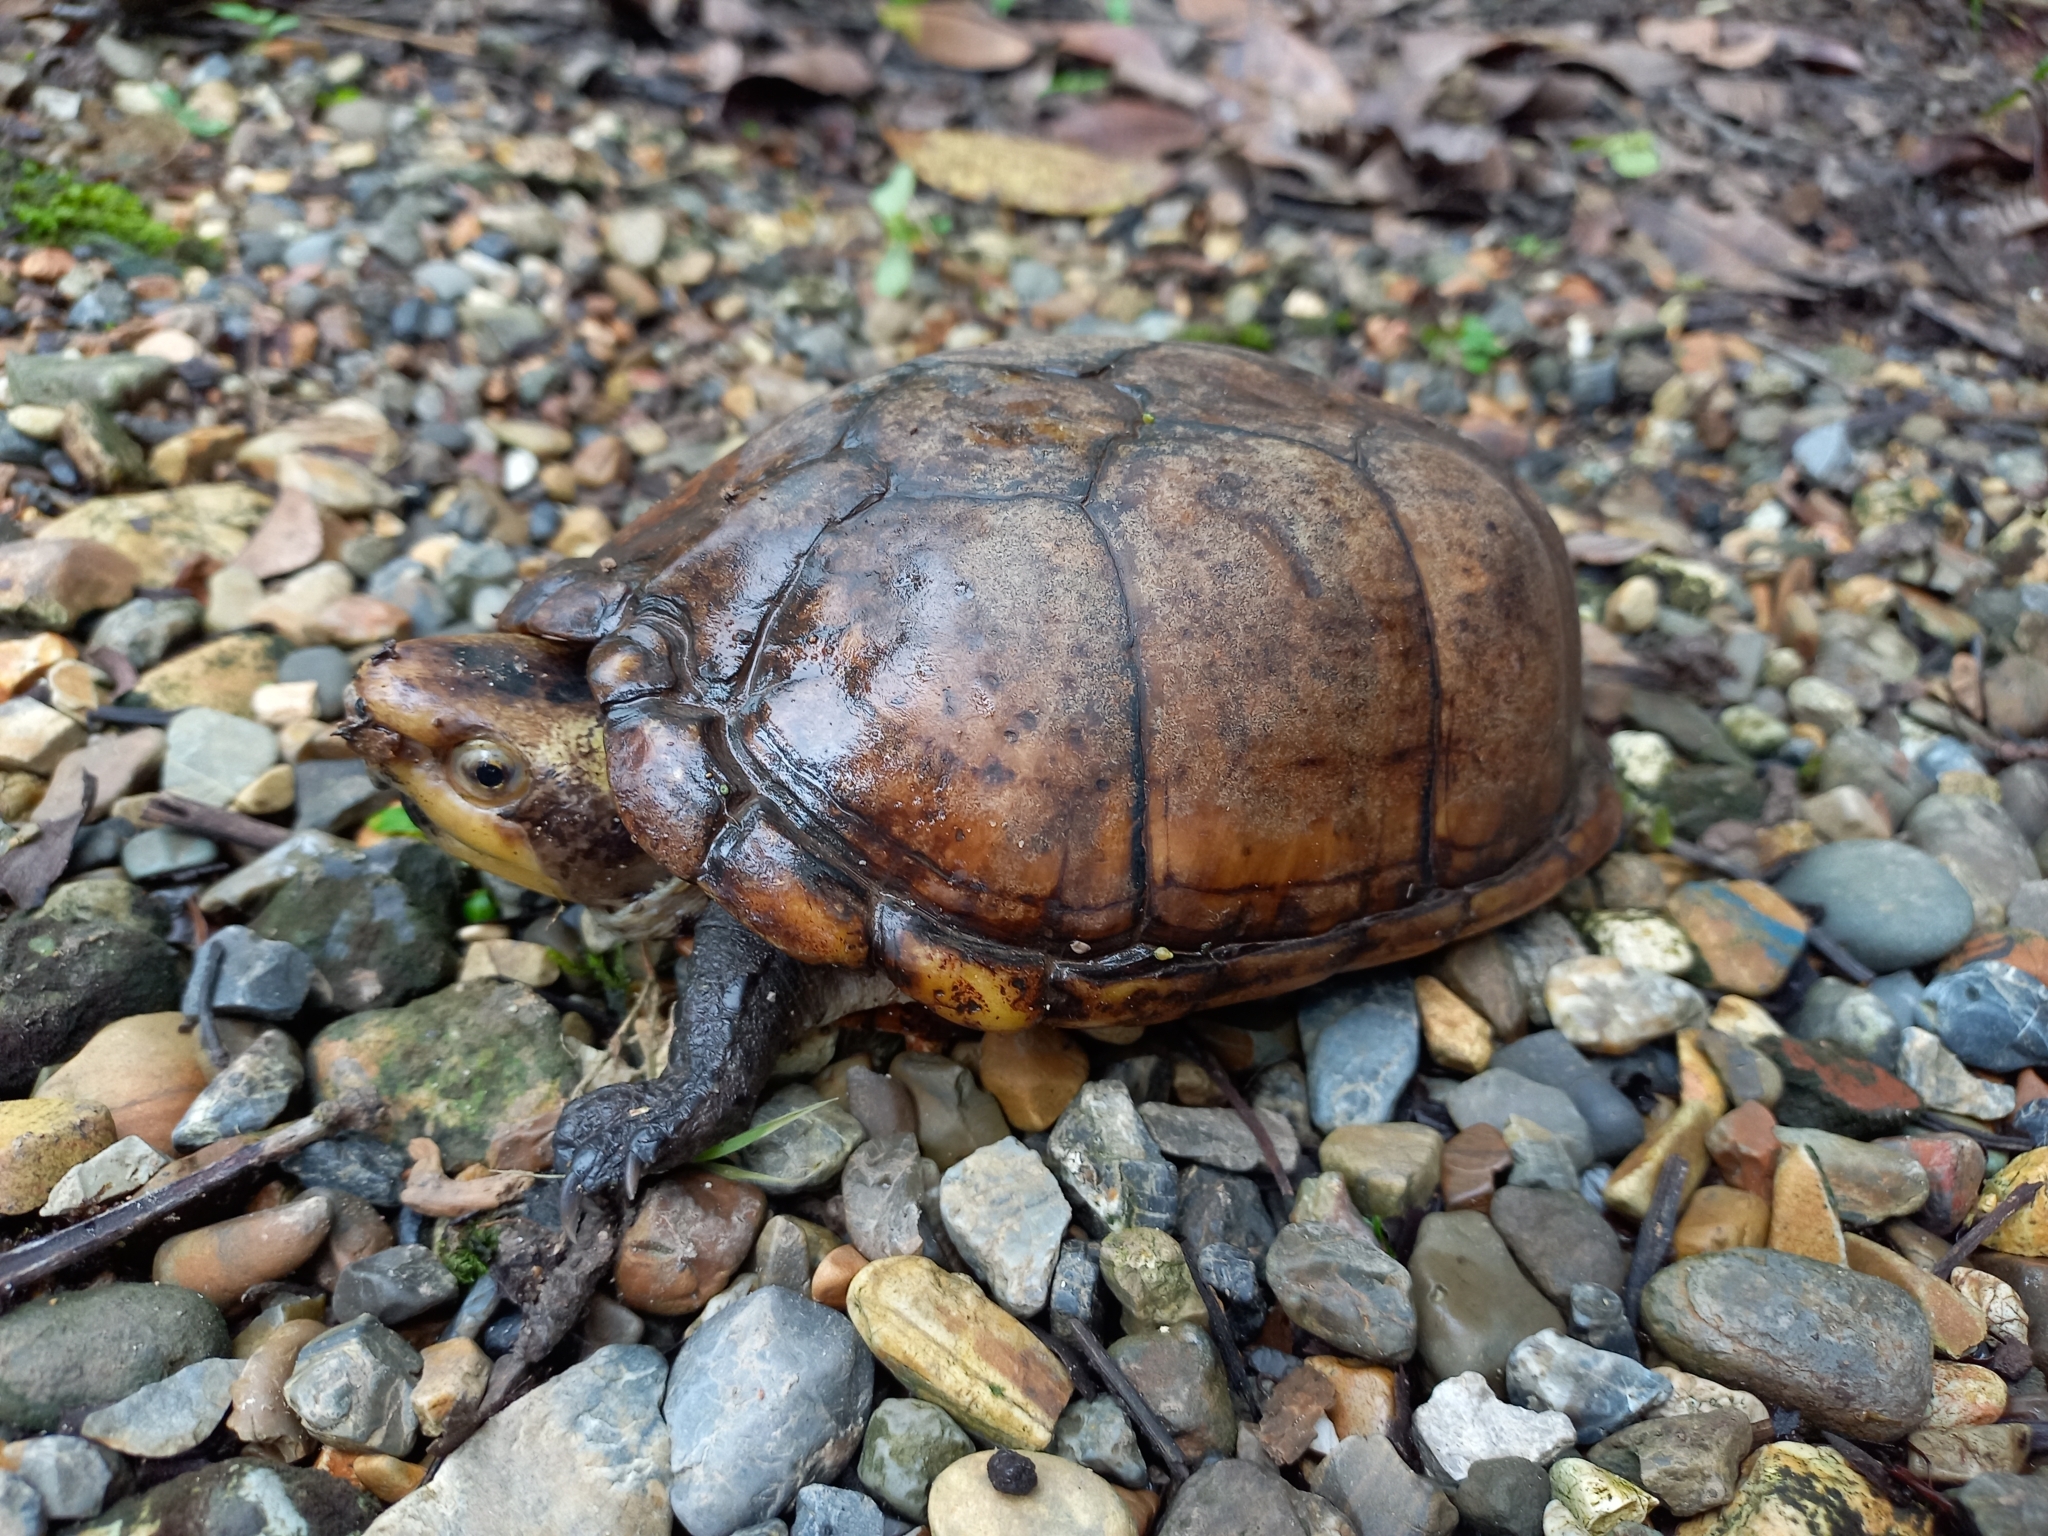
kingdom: Animalia
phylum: Chordata
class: Testudines
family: Kinosternidae
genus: Kinosternon
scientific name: Kinosternon leucostomum
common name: White-lipped mud turtle
